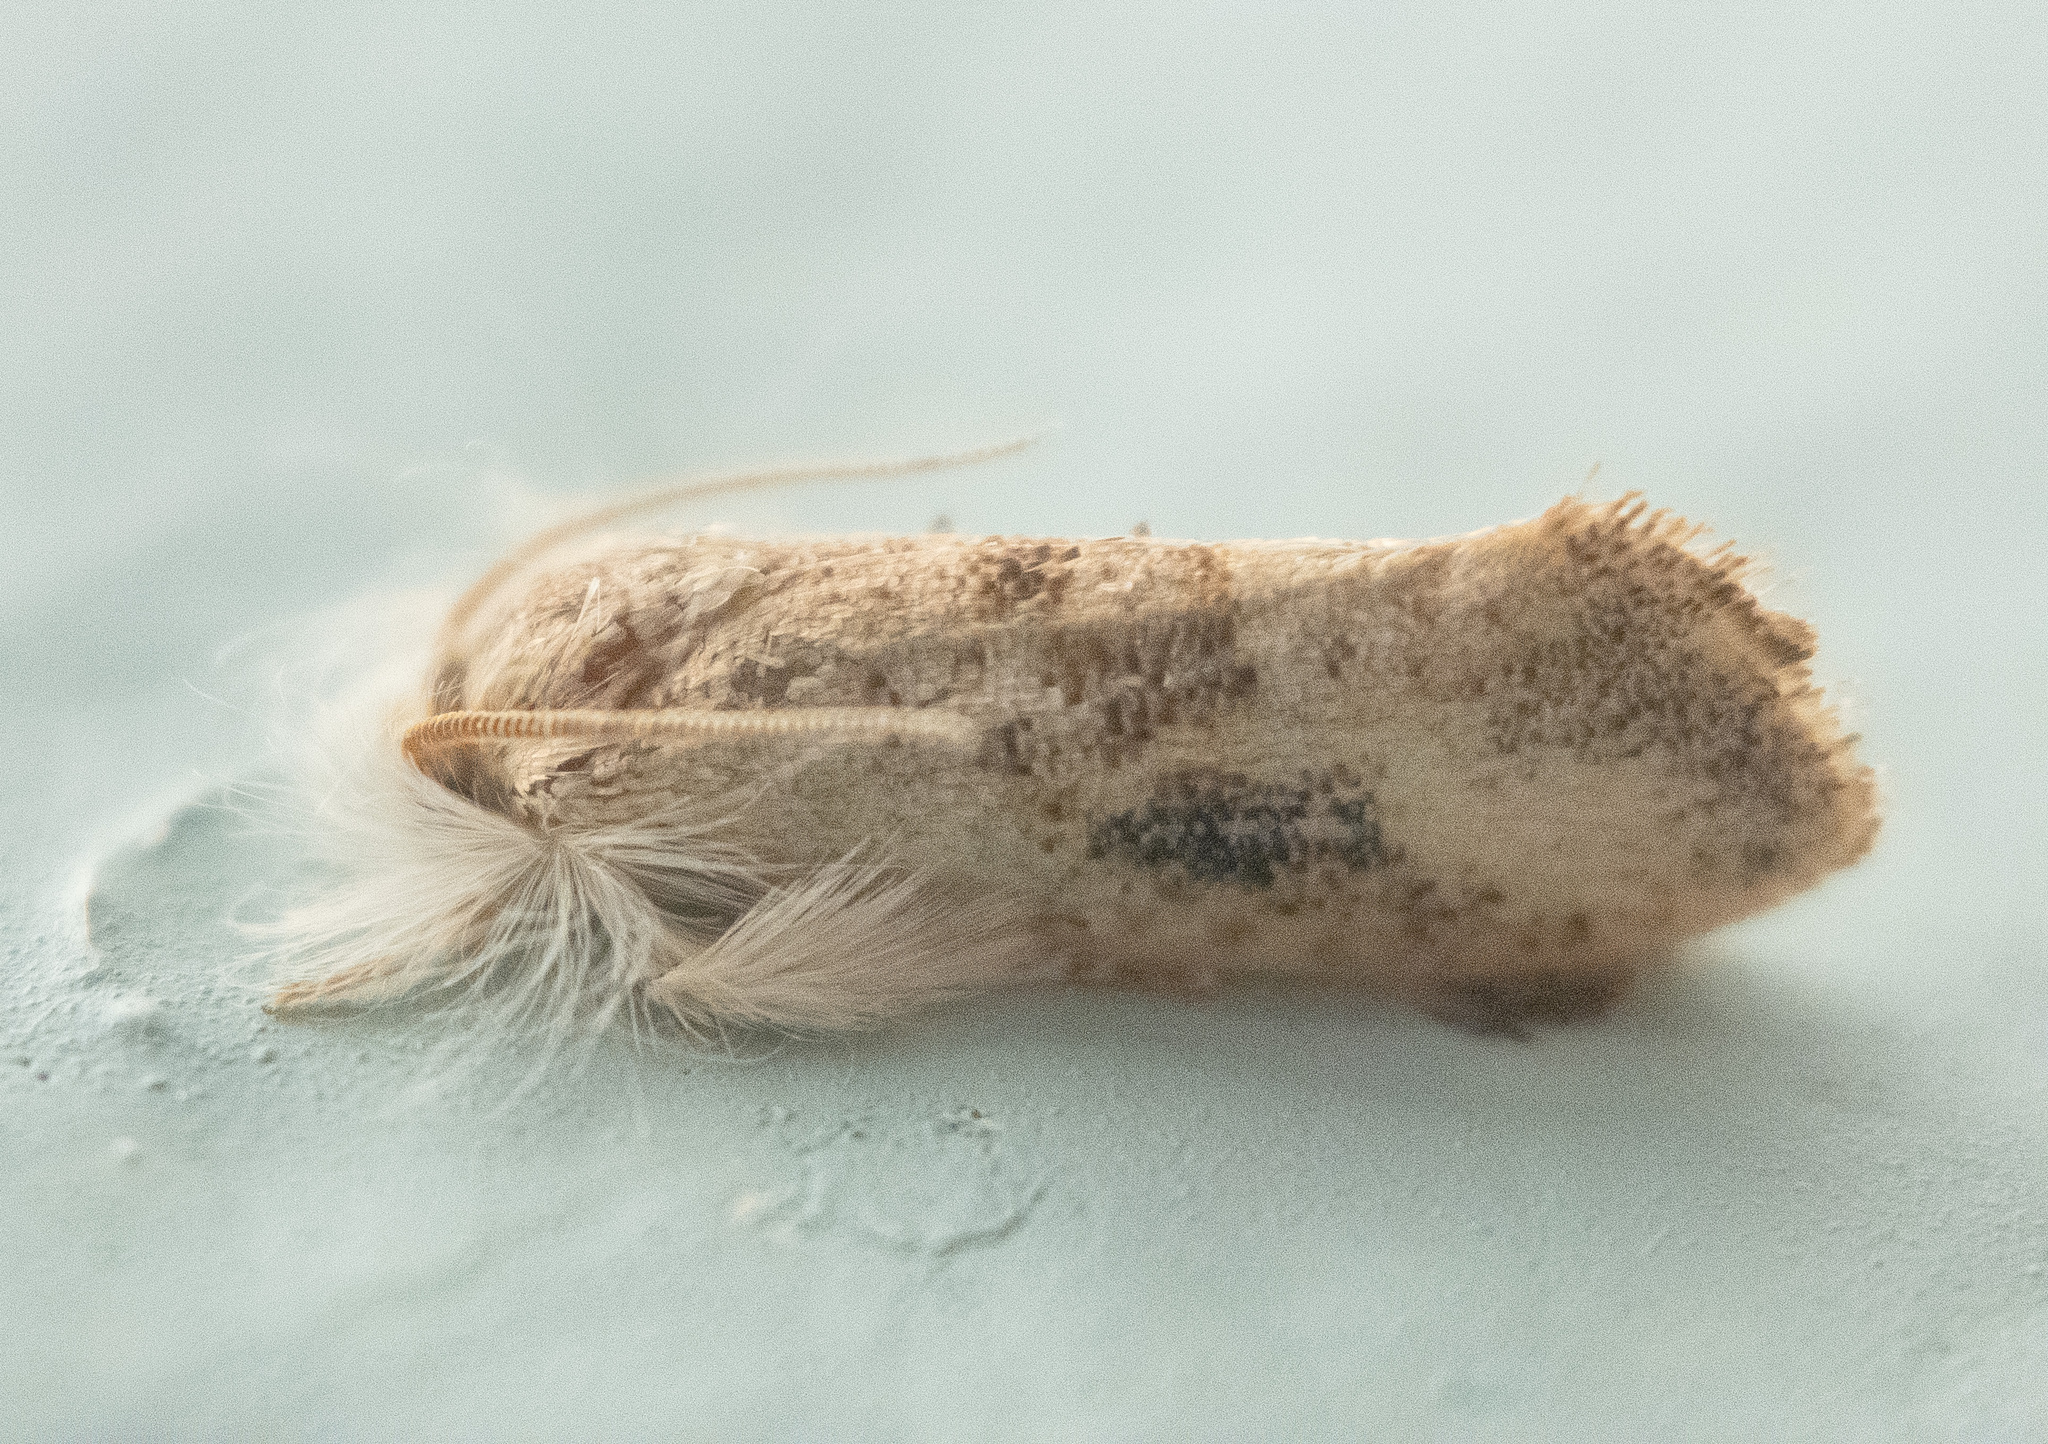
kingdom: Animalia
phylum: Arthropoda
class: Insecta
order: Lepidoptera
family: Tineidae
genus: Acrolophus
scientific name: Acrolophus mycetophagus
